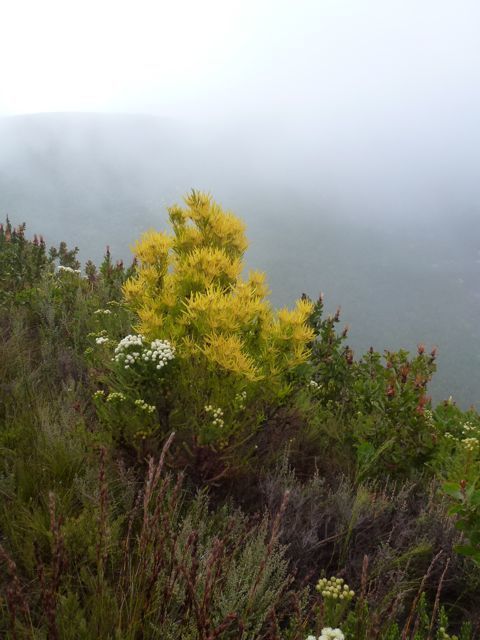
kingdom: Plantae
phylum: Tracheophyta
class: Magnoliopsida
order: Proteales
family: Proteaceae
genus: Leucadendron
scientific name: Leucadendron eucalyptifolium
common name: Gum-leaved conebush
